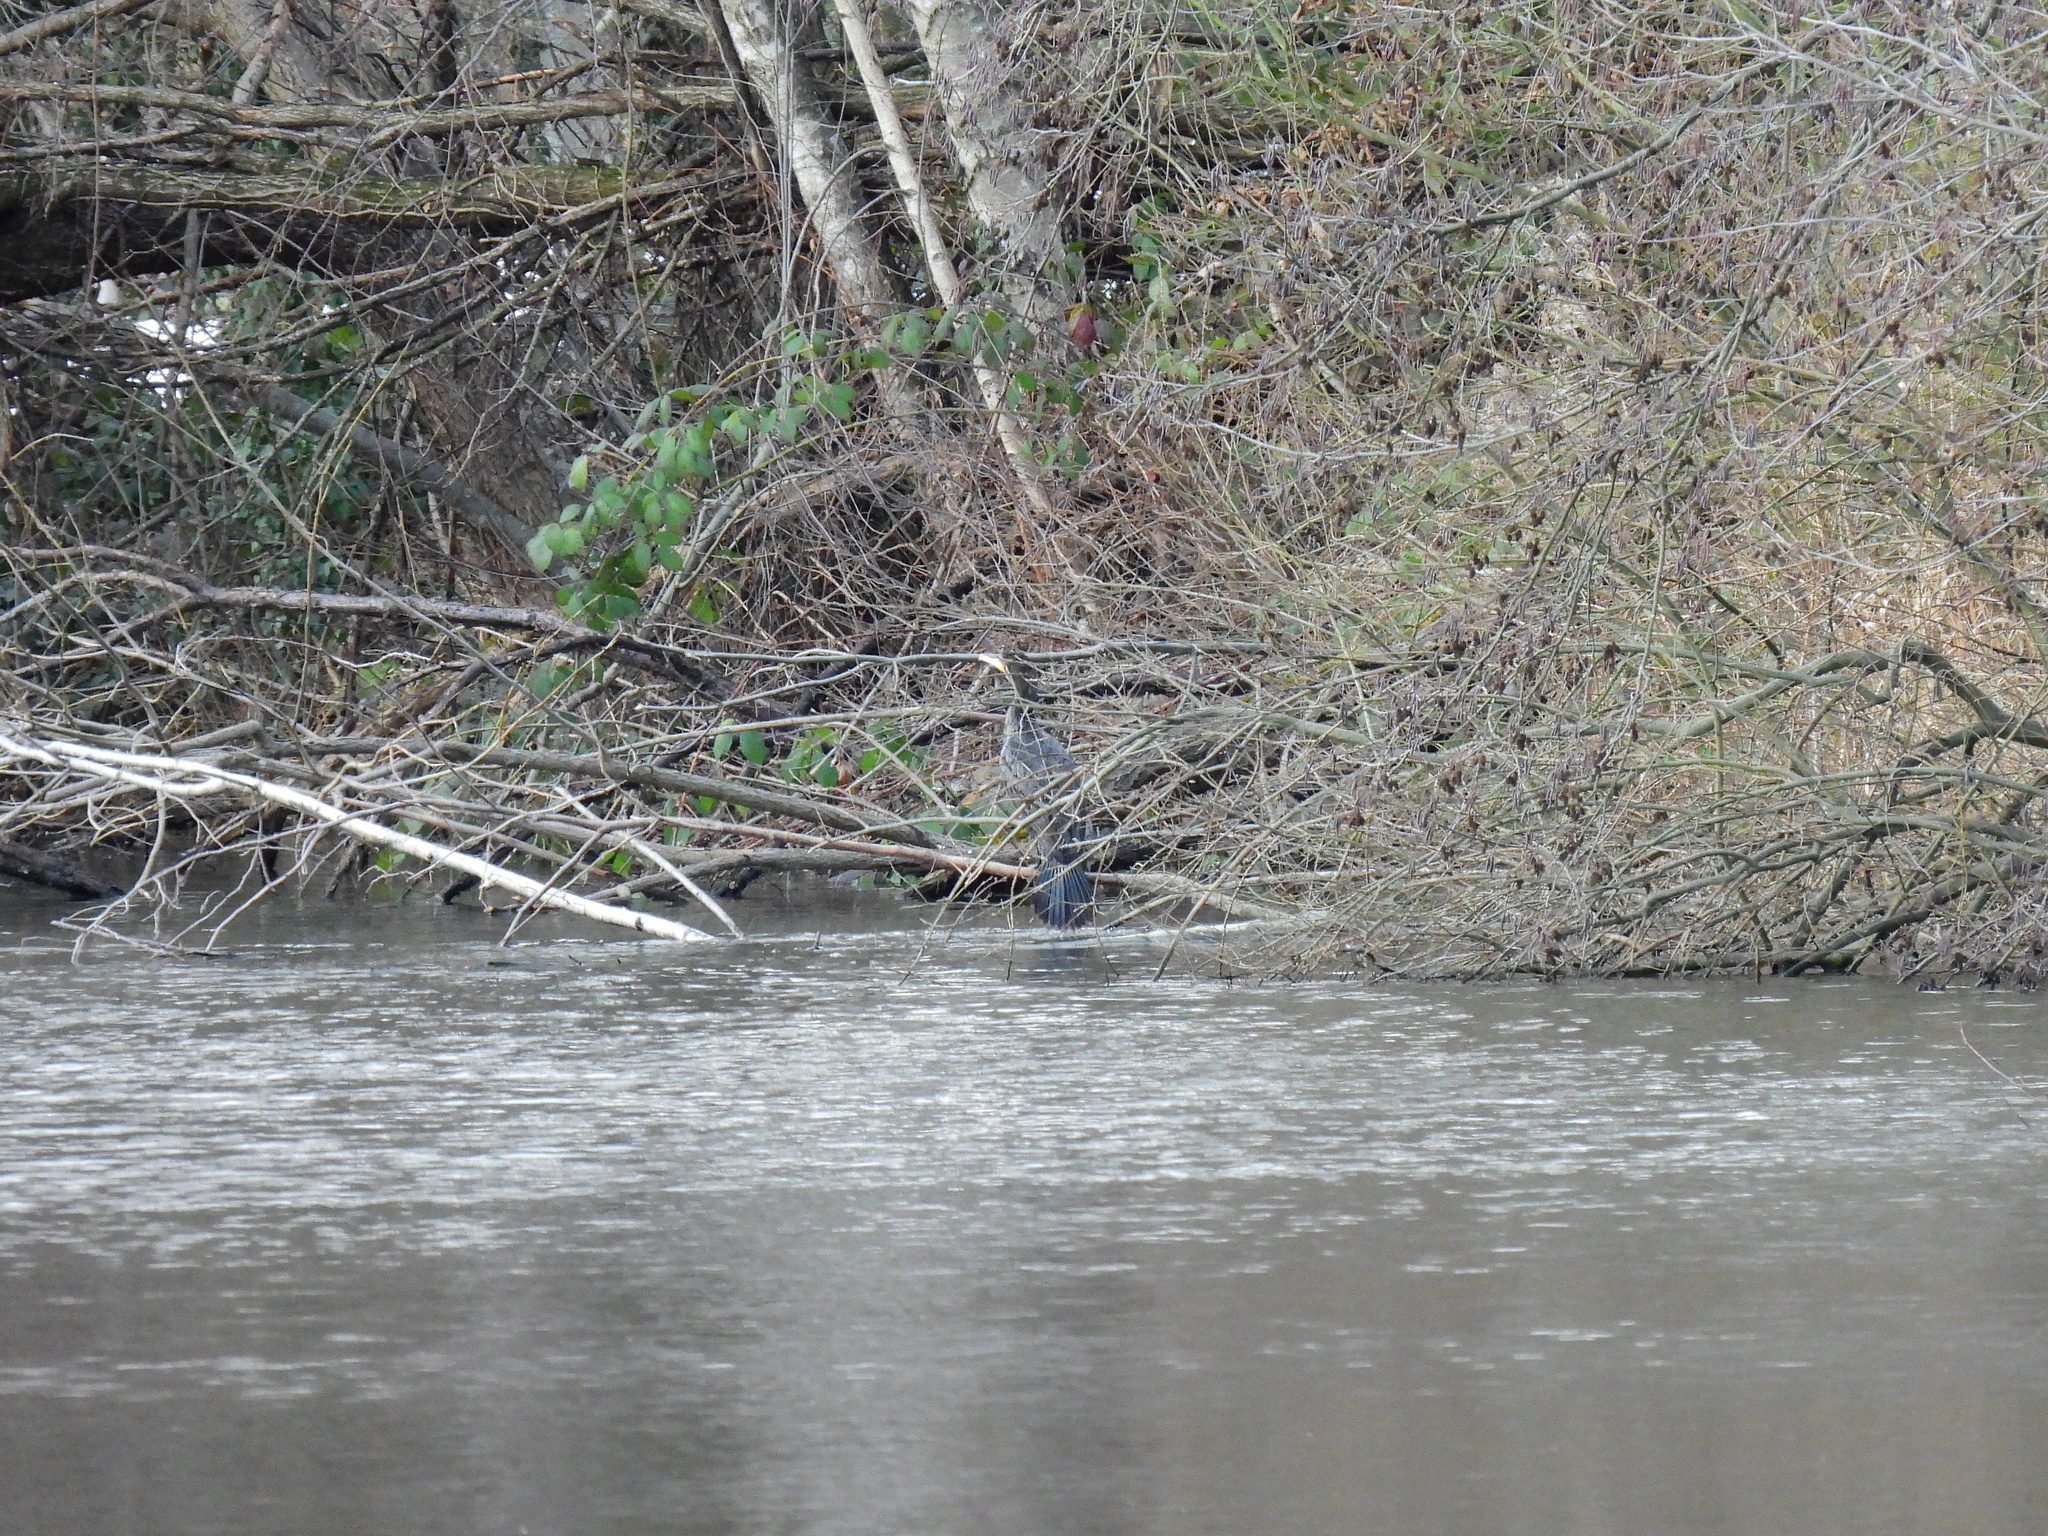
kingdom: Animalia
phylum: Chordata
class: Aves
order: Suliformes
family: Phalacrocoracidae
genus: Phalacrocorax
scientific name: Phalacrocorax carbo
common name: Great cormorant
